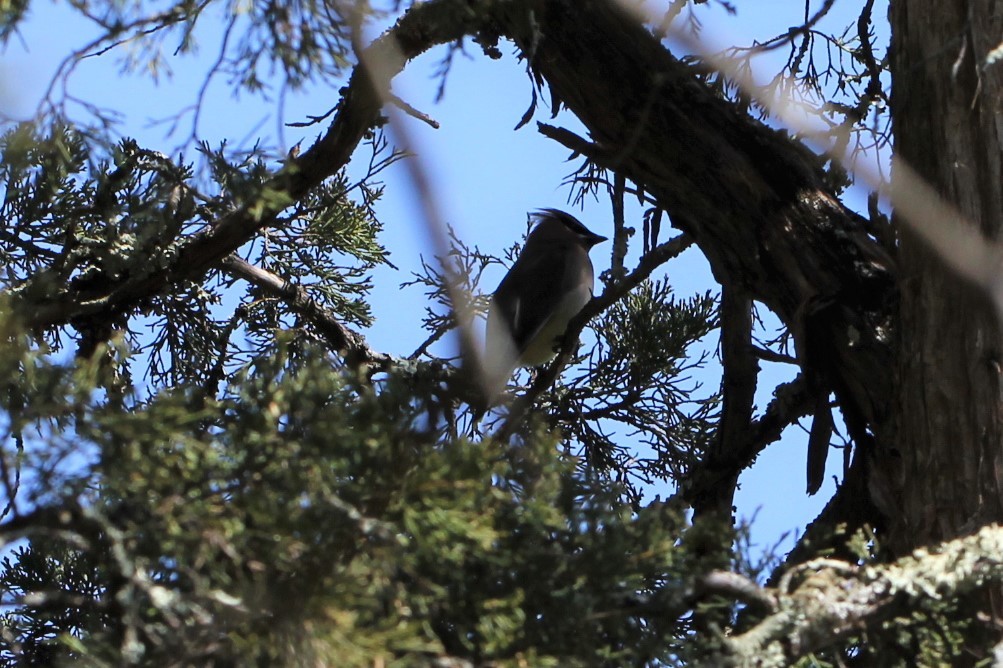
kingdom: Animalia
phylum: Chordata
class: Aves
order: Passeriformes
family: Bombycillidae
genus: Bombycilla
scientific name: Bombycilla cedrorum
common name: Cedar waxwing
